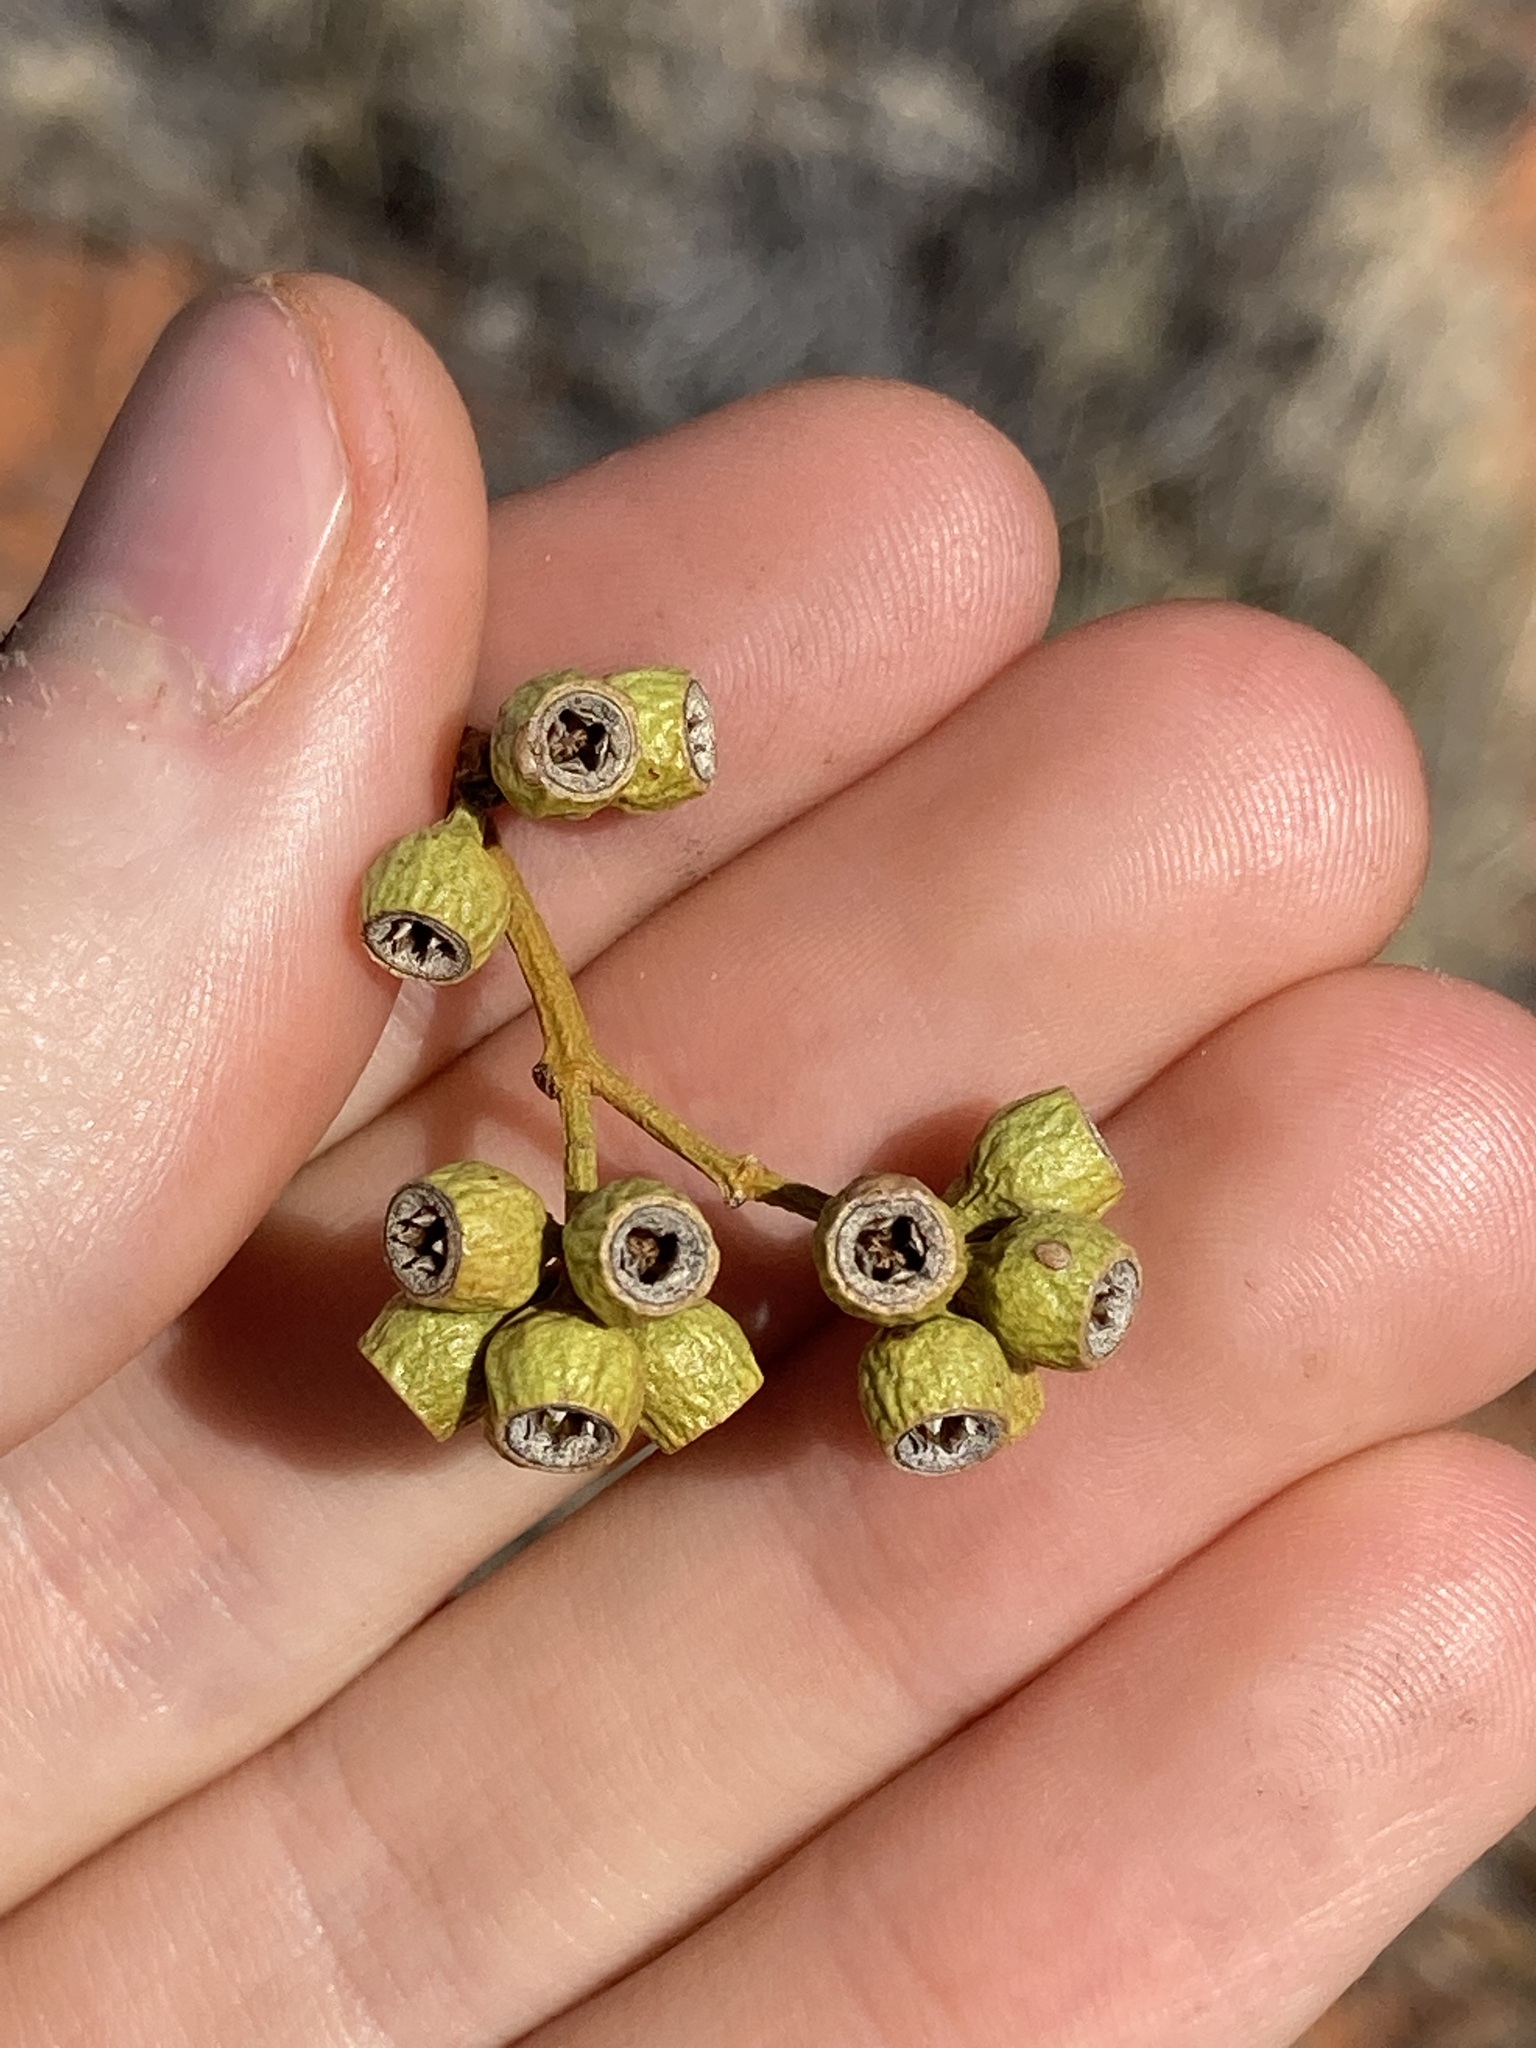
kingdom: Plantae
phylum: Tracheophyta
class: Magnoliopsida
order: Myrtales
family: Myrtaceae
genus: Eucalyptus
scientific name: Eucalyptus rigidula
